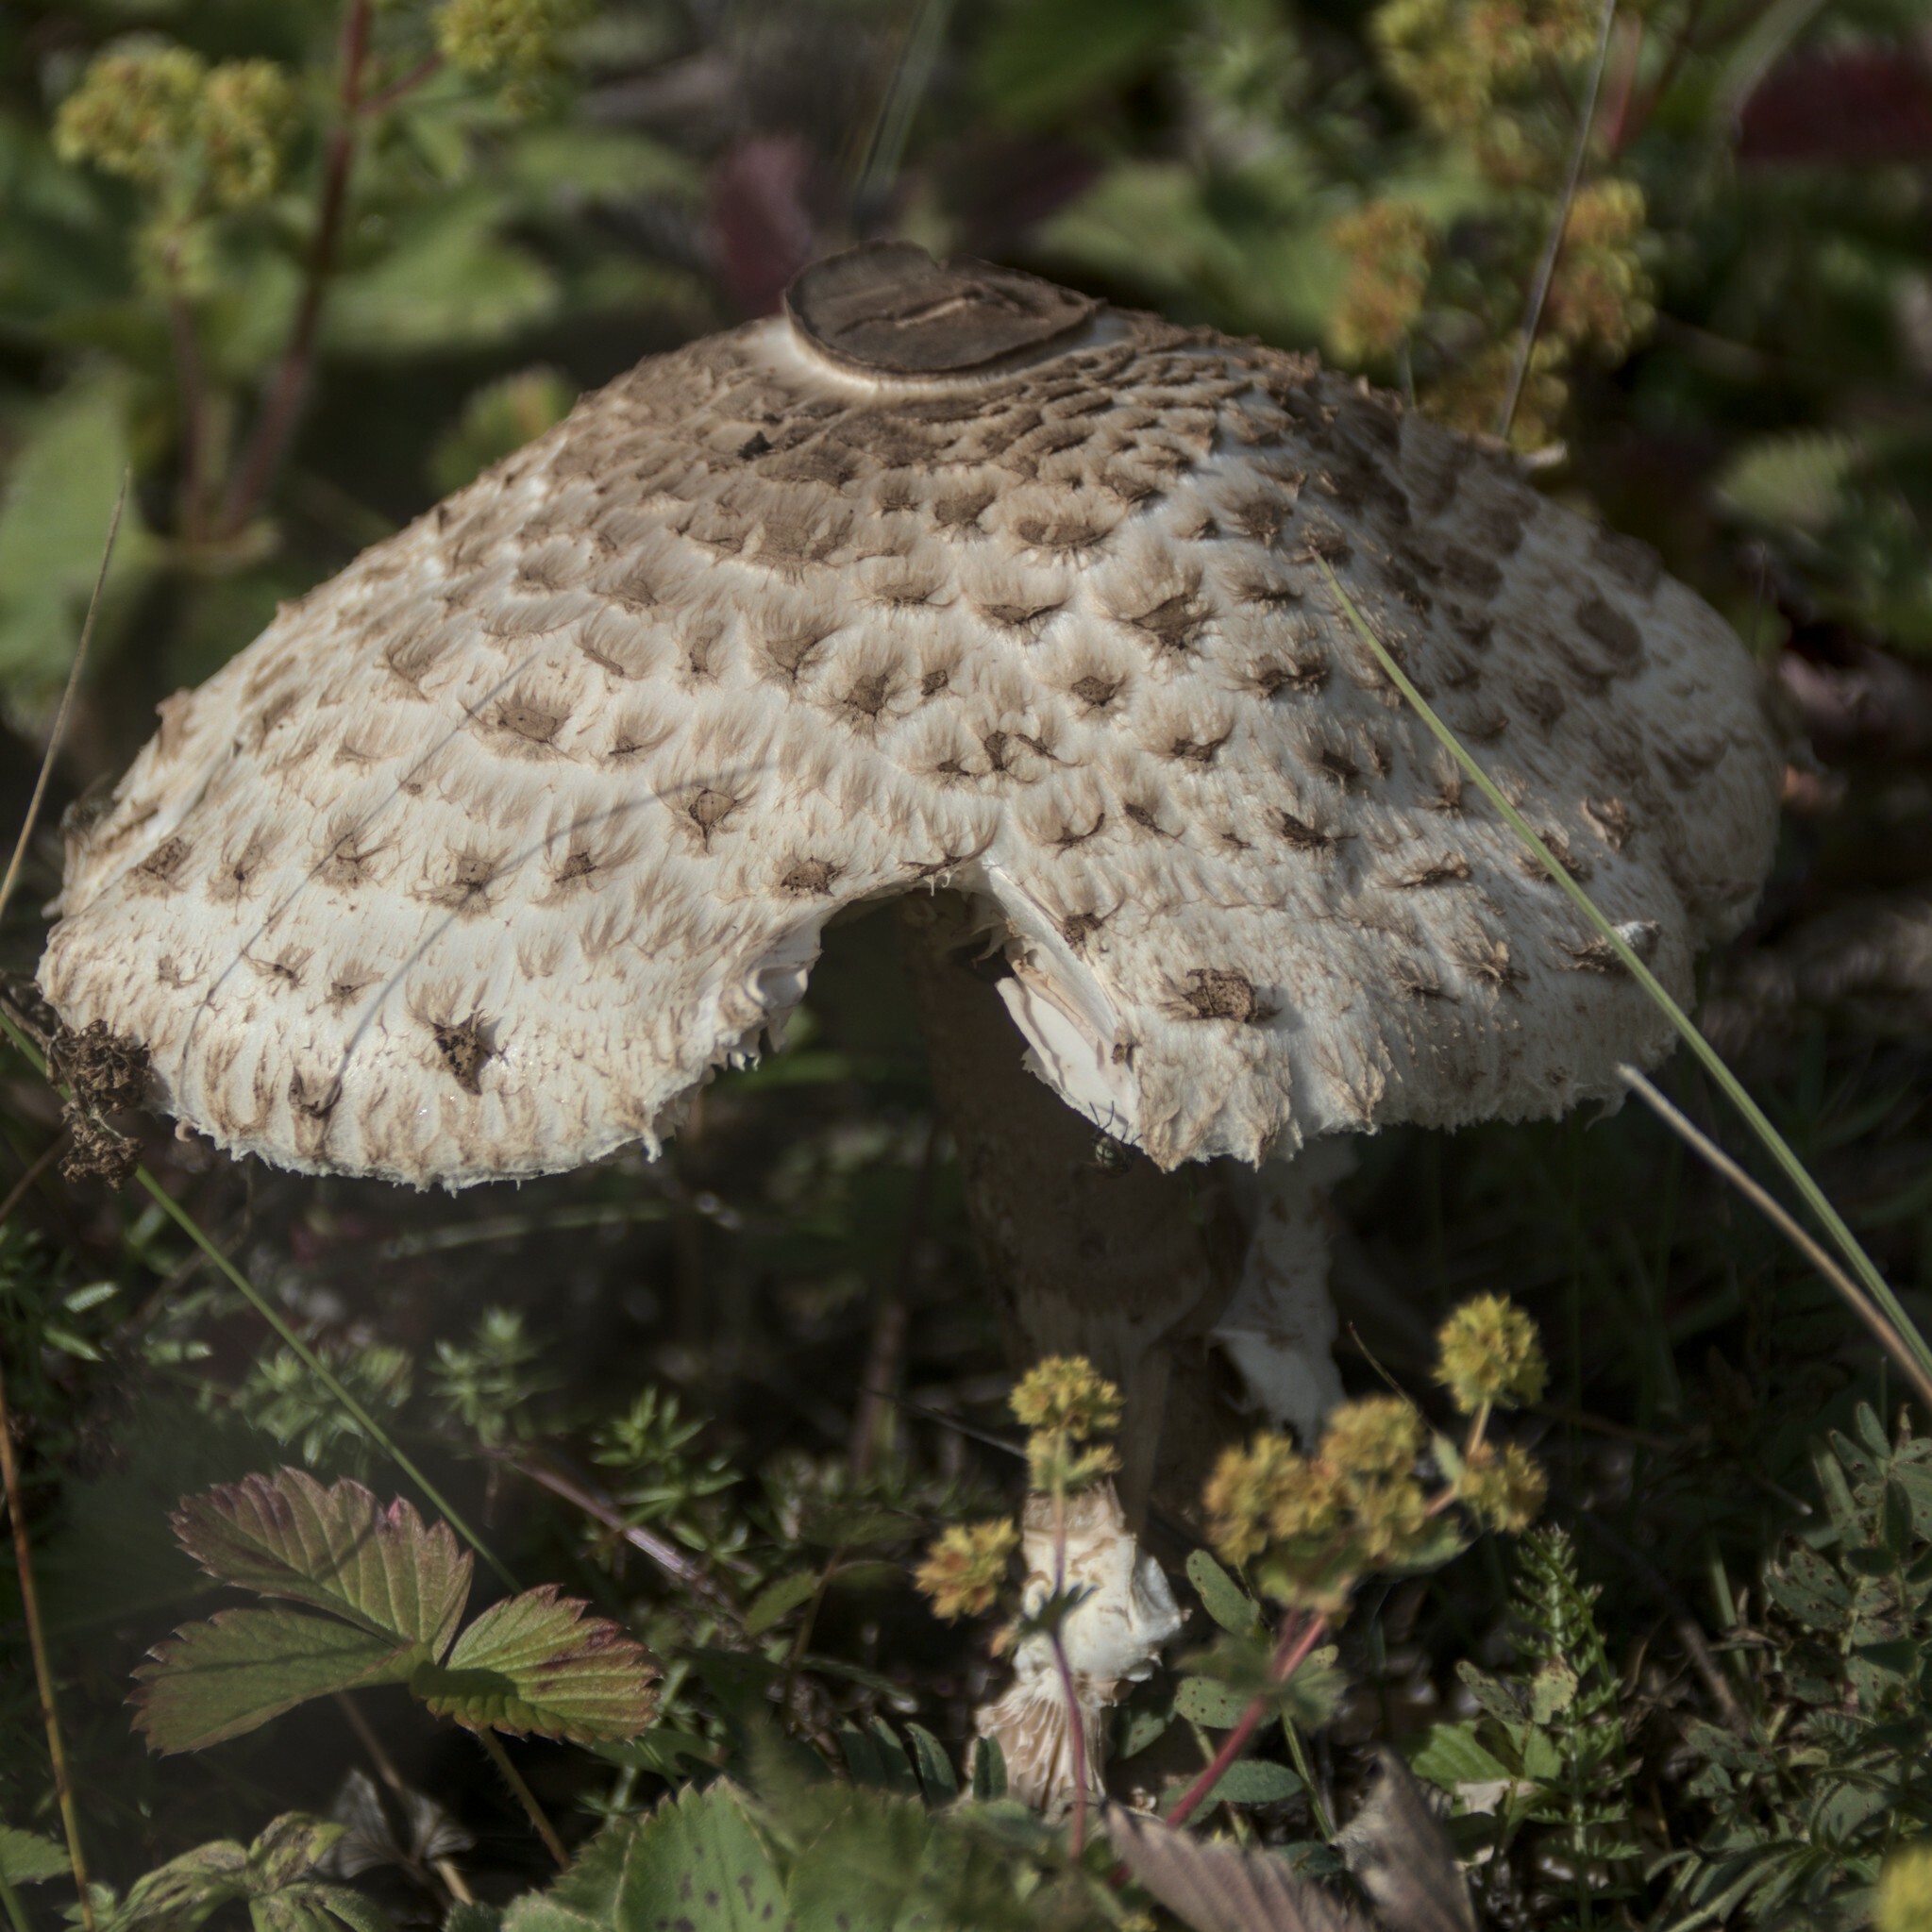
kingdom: Fungi
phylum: Basidiomycota
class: Agaricomycetes
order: Agaricales
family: Agaricaceae
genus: Macrolepiota
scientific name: Macrolepiota procera
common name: Parasol
